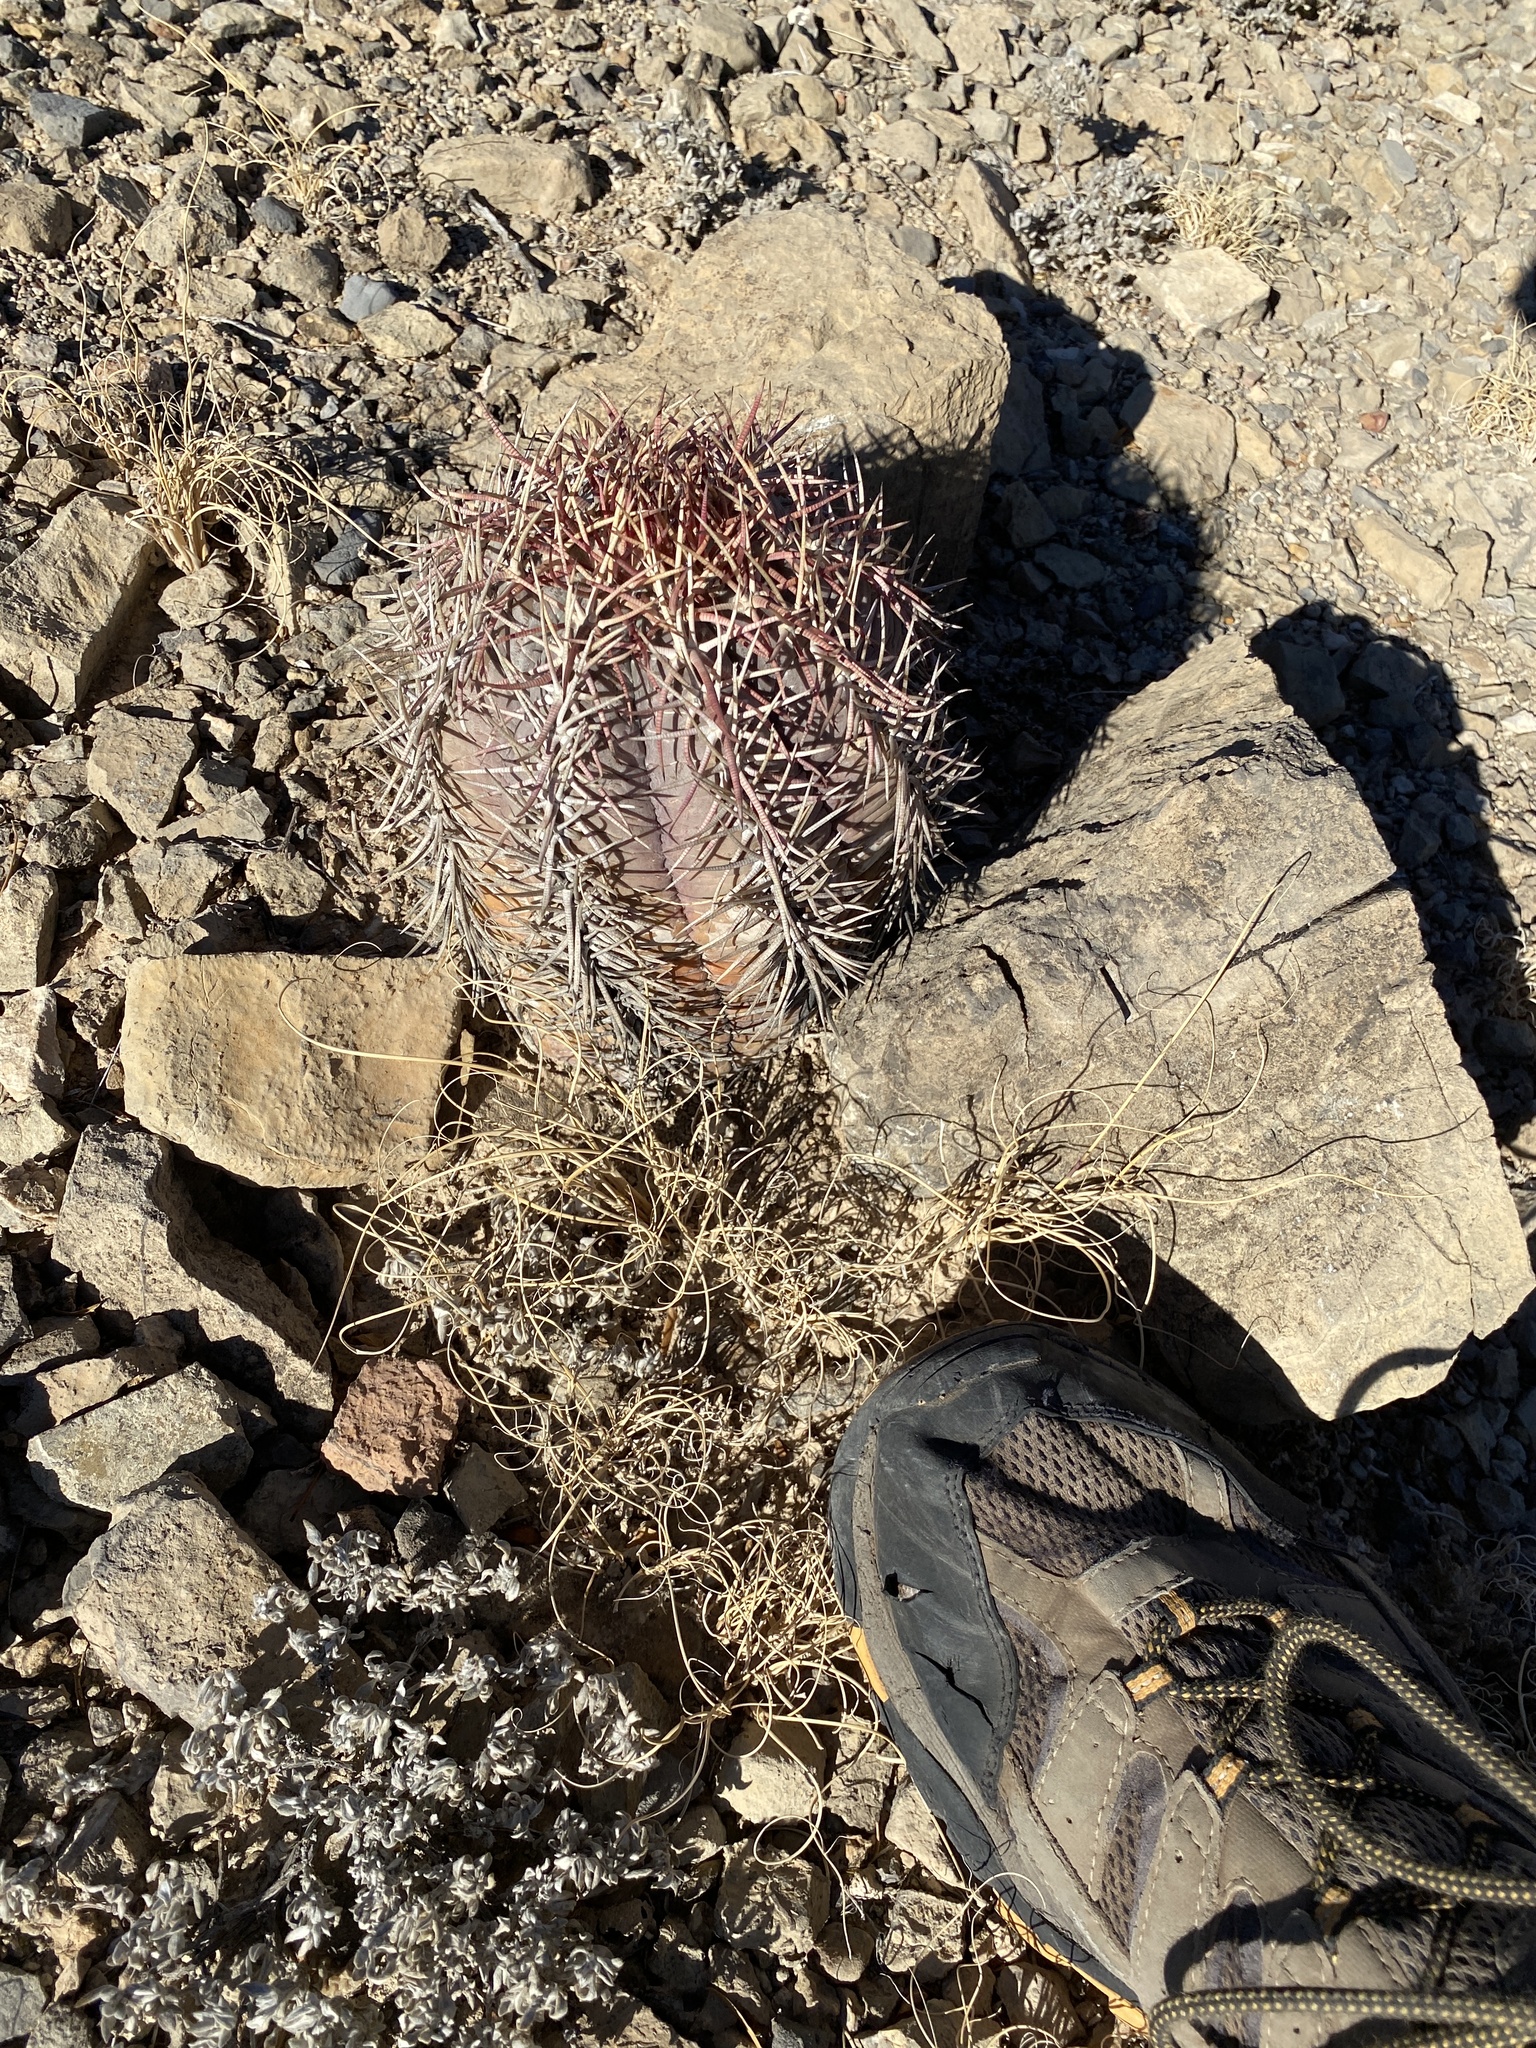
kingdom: Plantae
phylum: Tracheophyta
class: Magnoliopsida
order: Caryophyllales
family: Cactaceae
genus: Echinocactus
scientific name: Echinocactus horizonthalonius
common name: Devilshead
